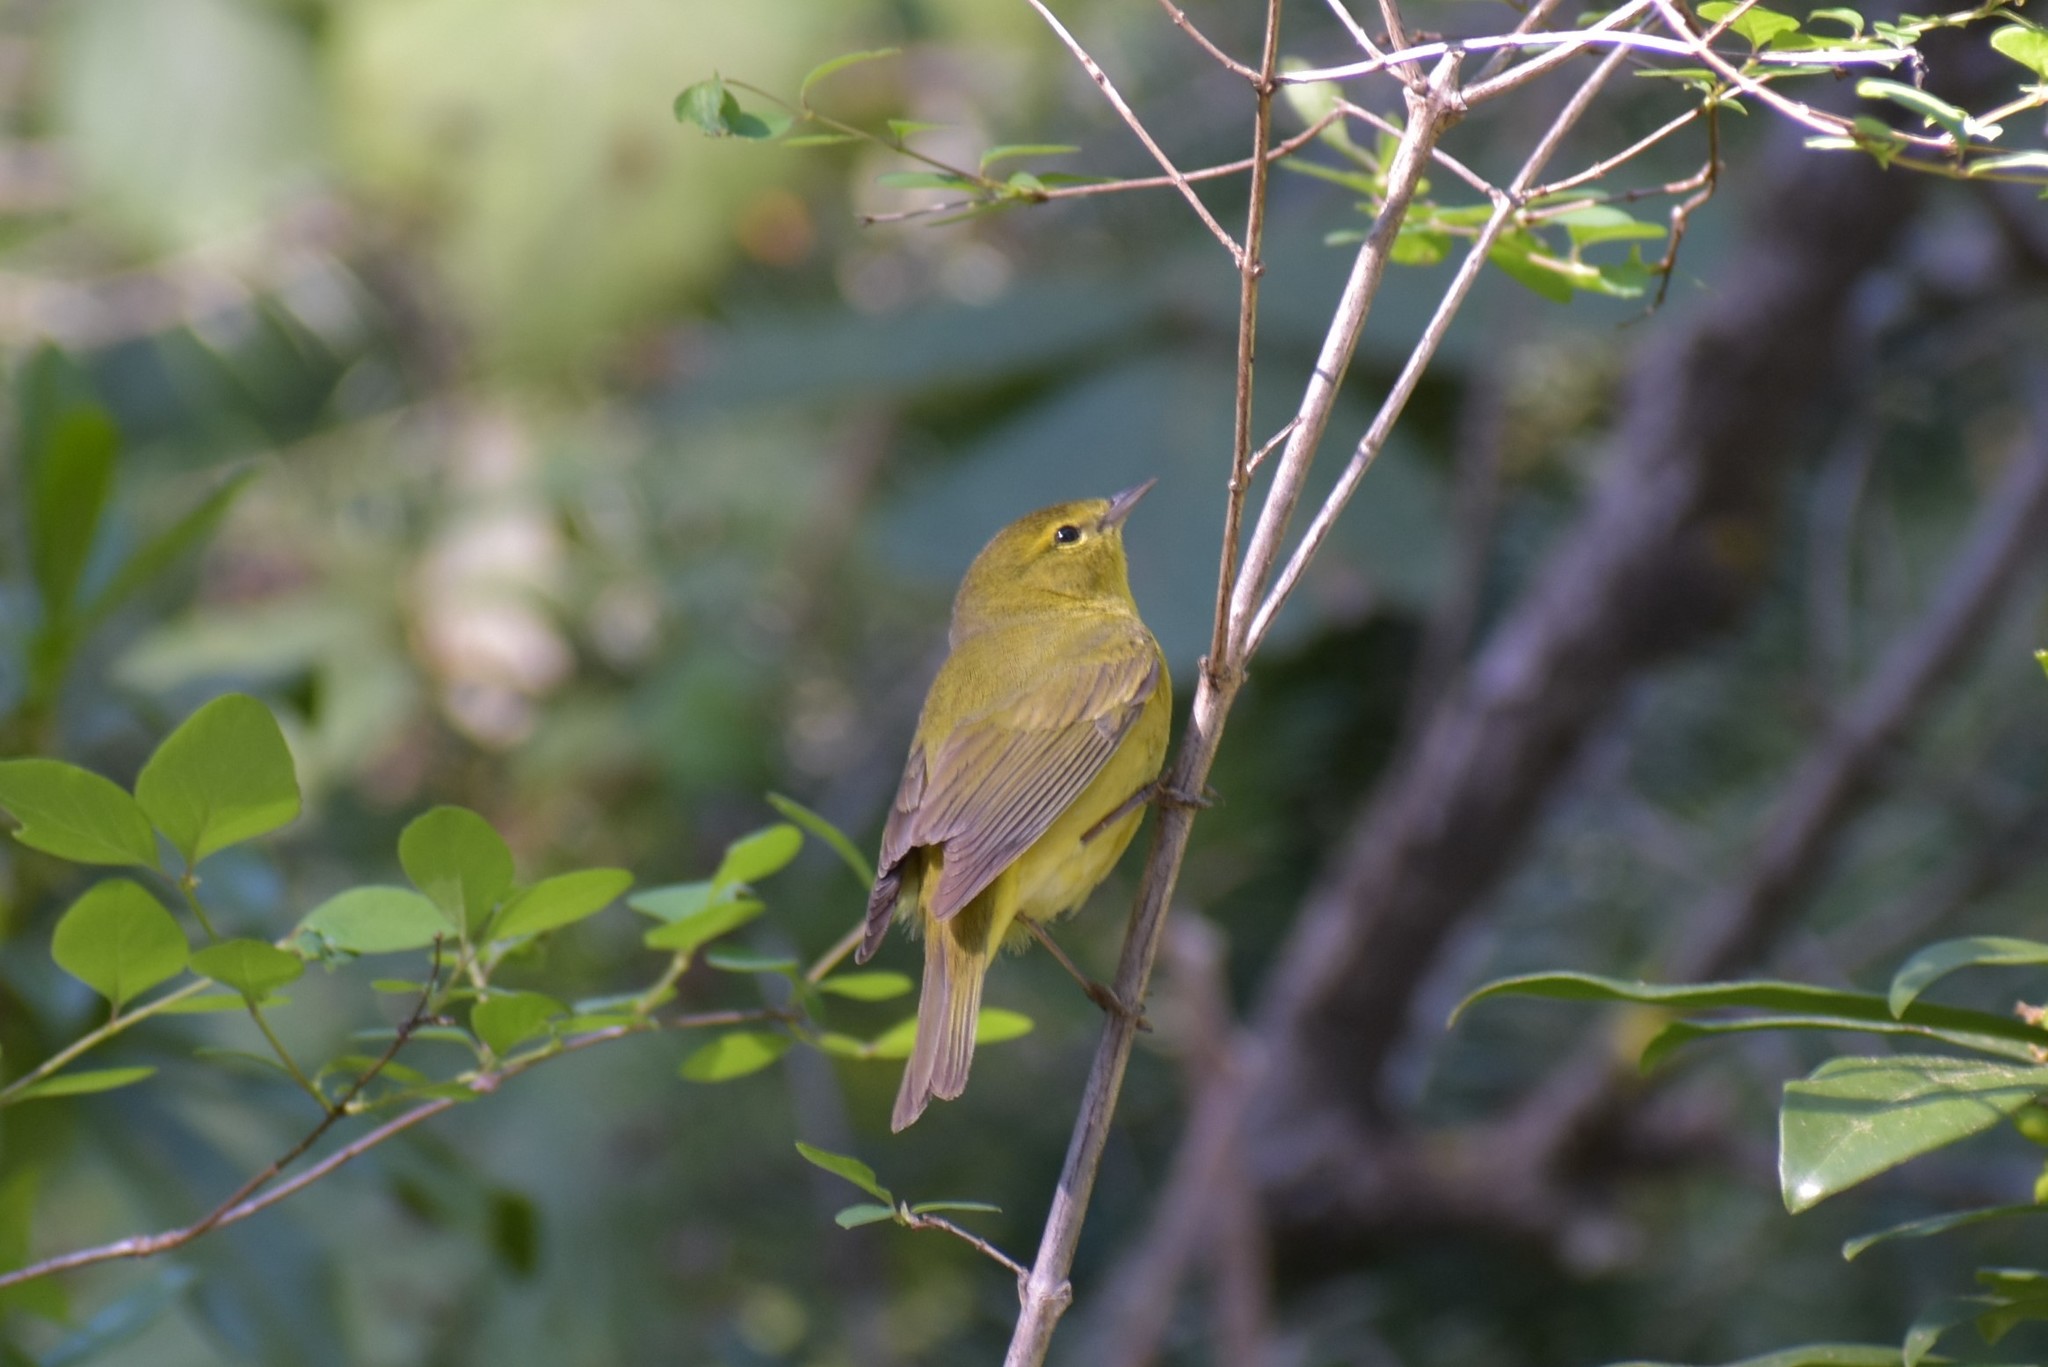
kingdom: Animalia
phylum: Chordata
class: Aves
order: Passeriformes
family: Parulidae
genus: Leiothlypis
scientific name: Leiothlypis celata
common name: Orange-crowned warbler
